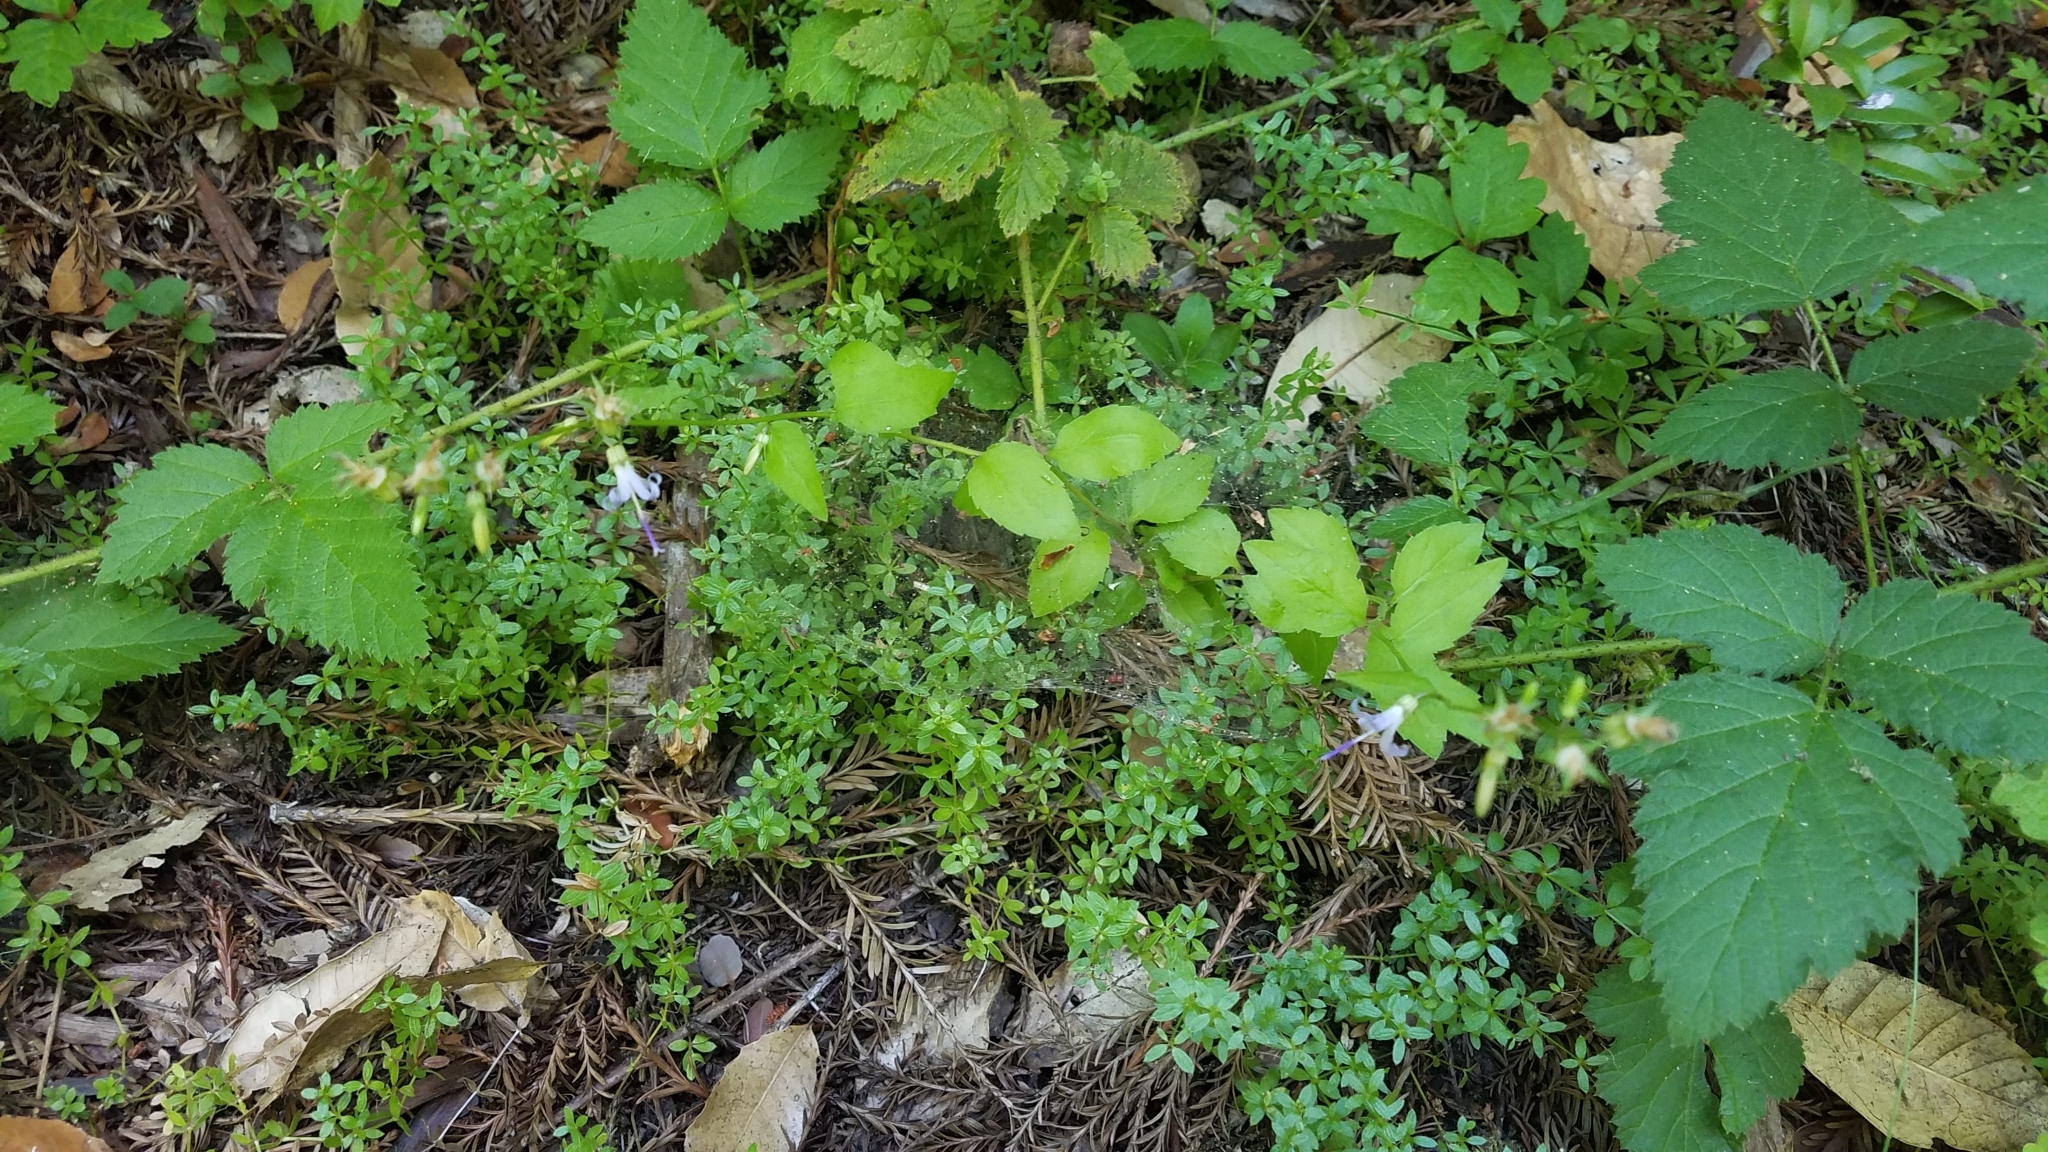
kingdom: Plantae
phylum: Tracheophyta
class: Magnoliopsida
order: Asterales
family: Campanulaceae
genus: Smithiastrum
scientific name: Smithiastrum prenanthoides
